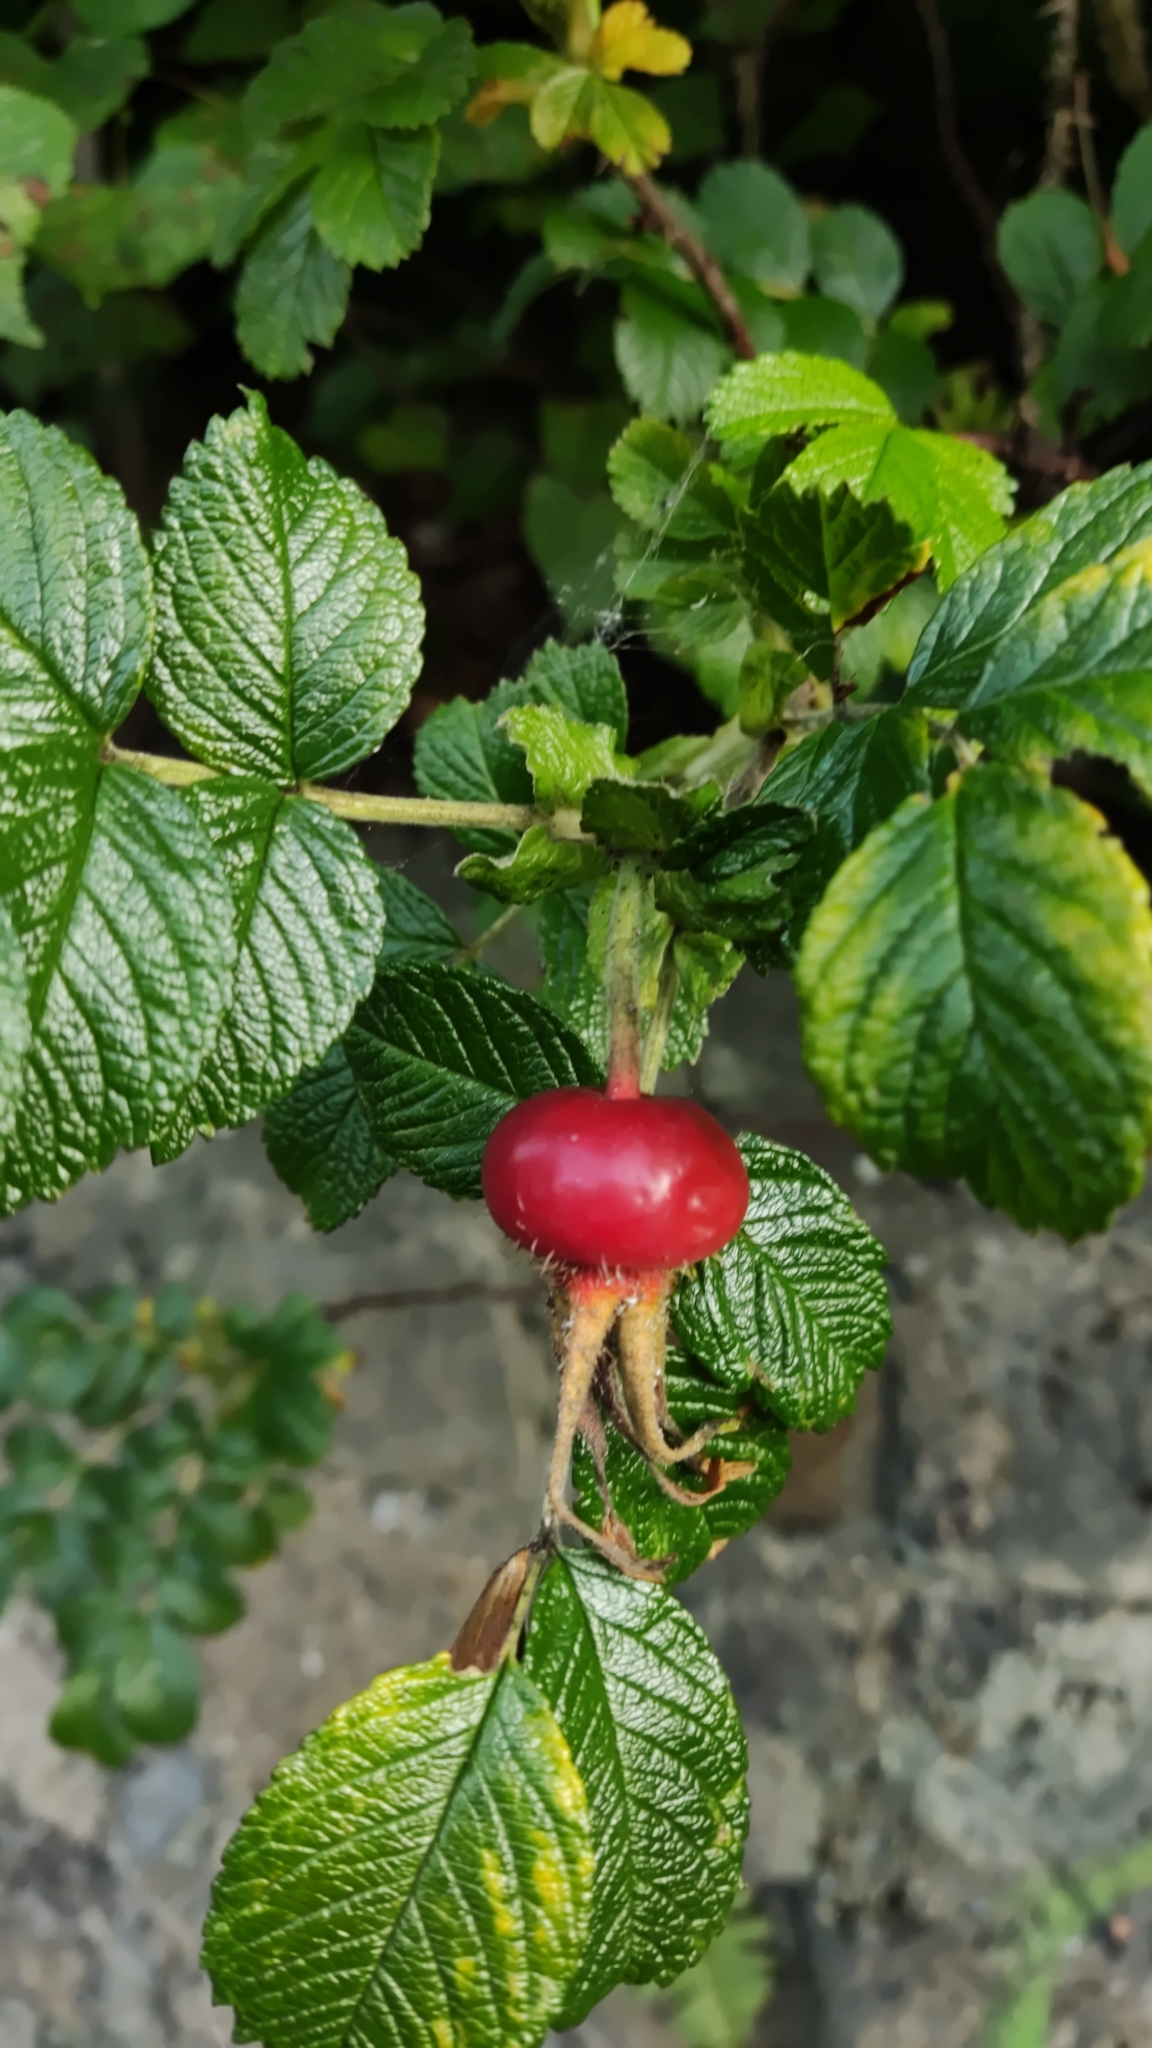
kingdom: Plantae
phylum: Tracheophyta
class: Magnoliopsida
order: Rosales
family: Rosaceae
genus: Rosa
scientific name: Rosa rugosa
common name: Japanese rose
